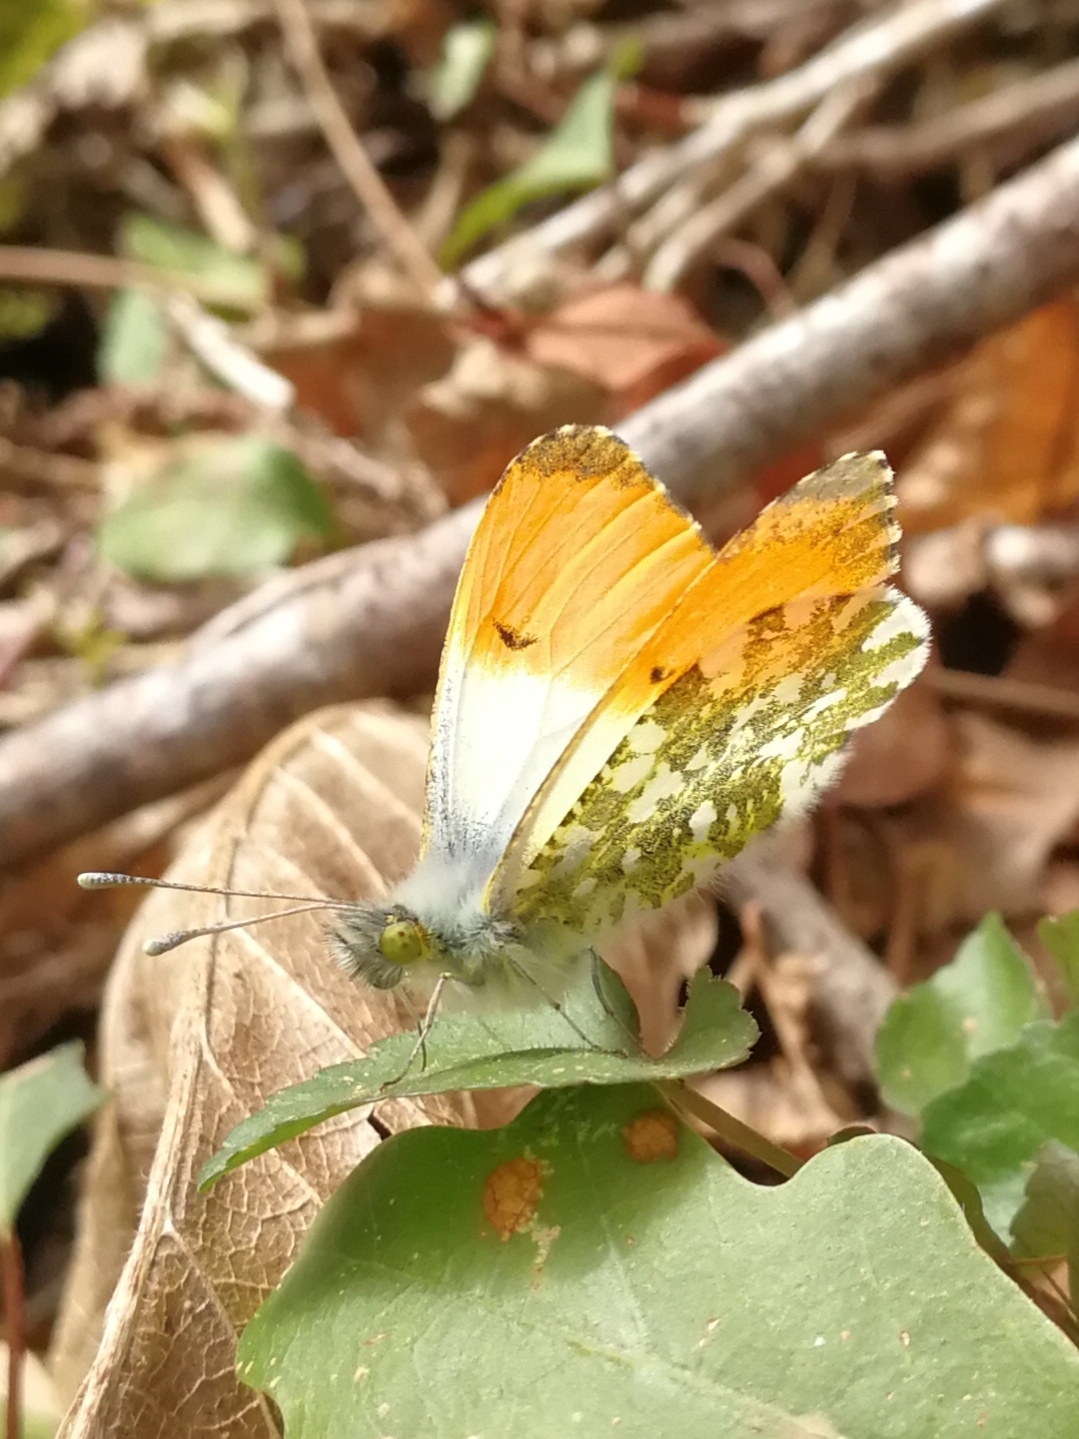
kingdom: Animalia
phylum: Arthropoda
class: Insecta
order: Lepidoptera
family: Pieridae
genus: Anthocharis
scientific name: Anthocharis cardamines
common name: Orange-tip
